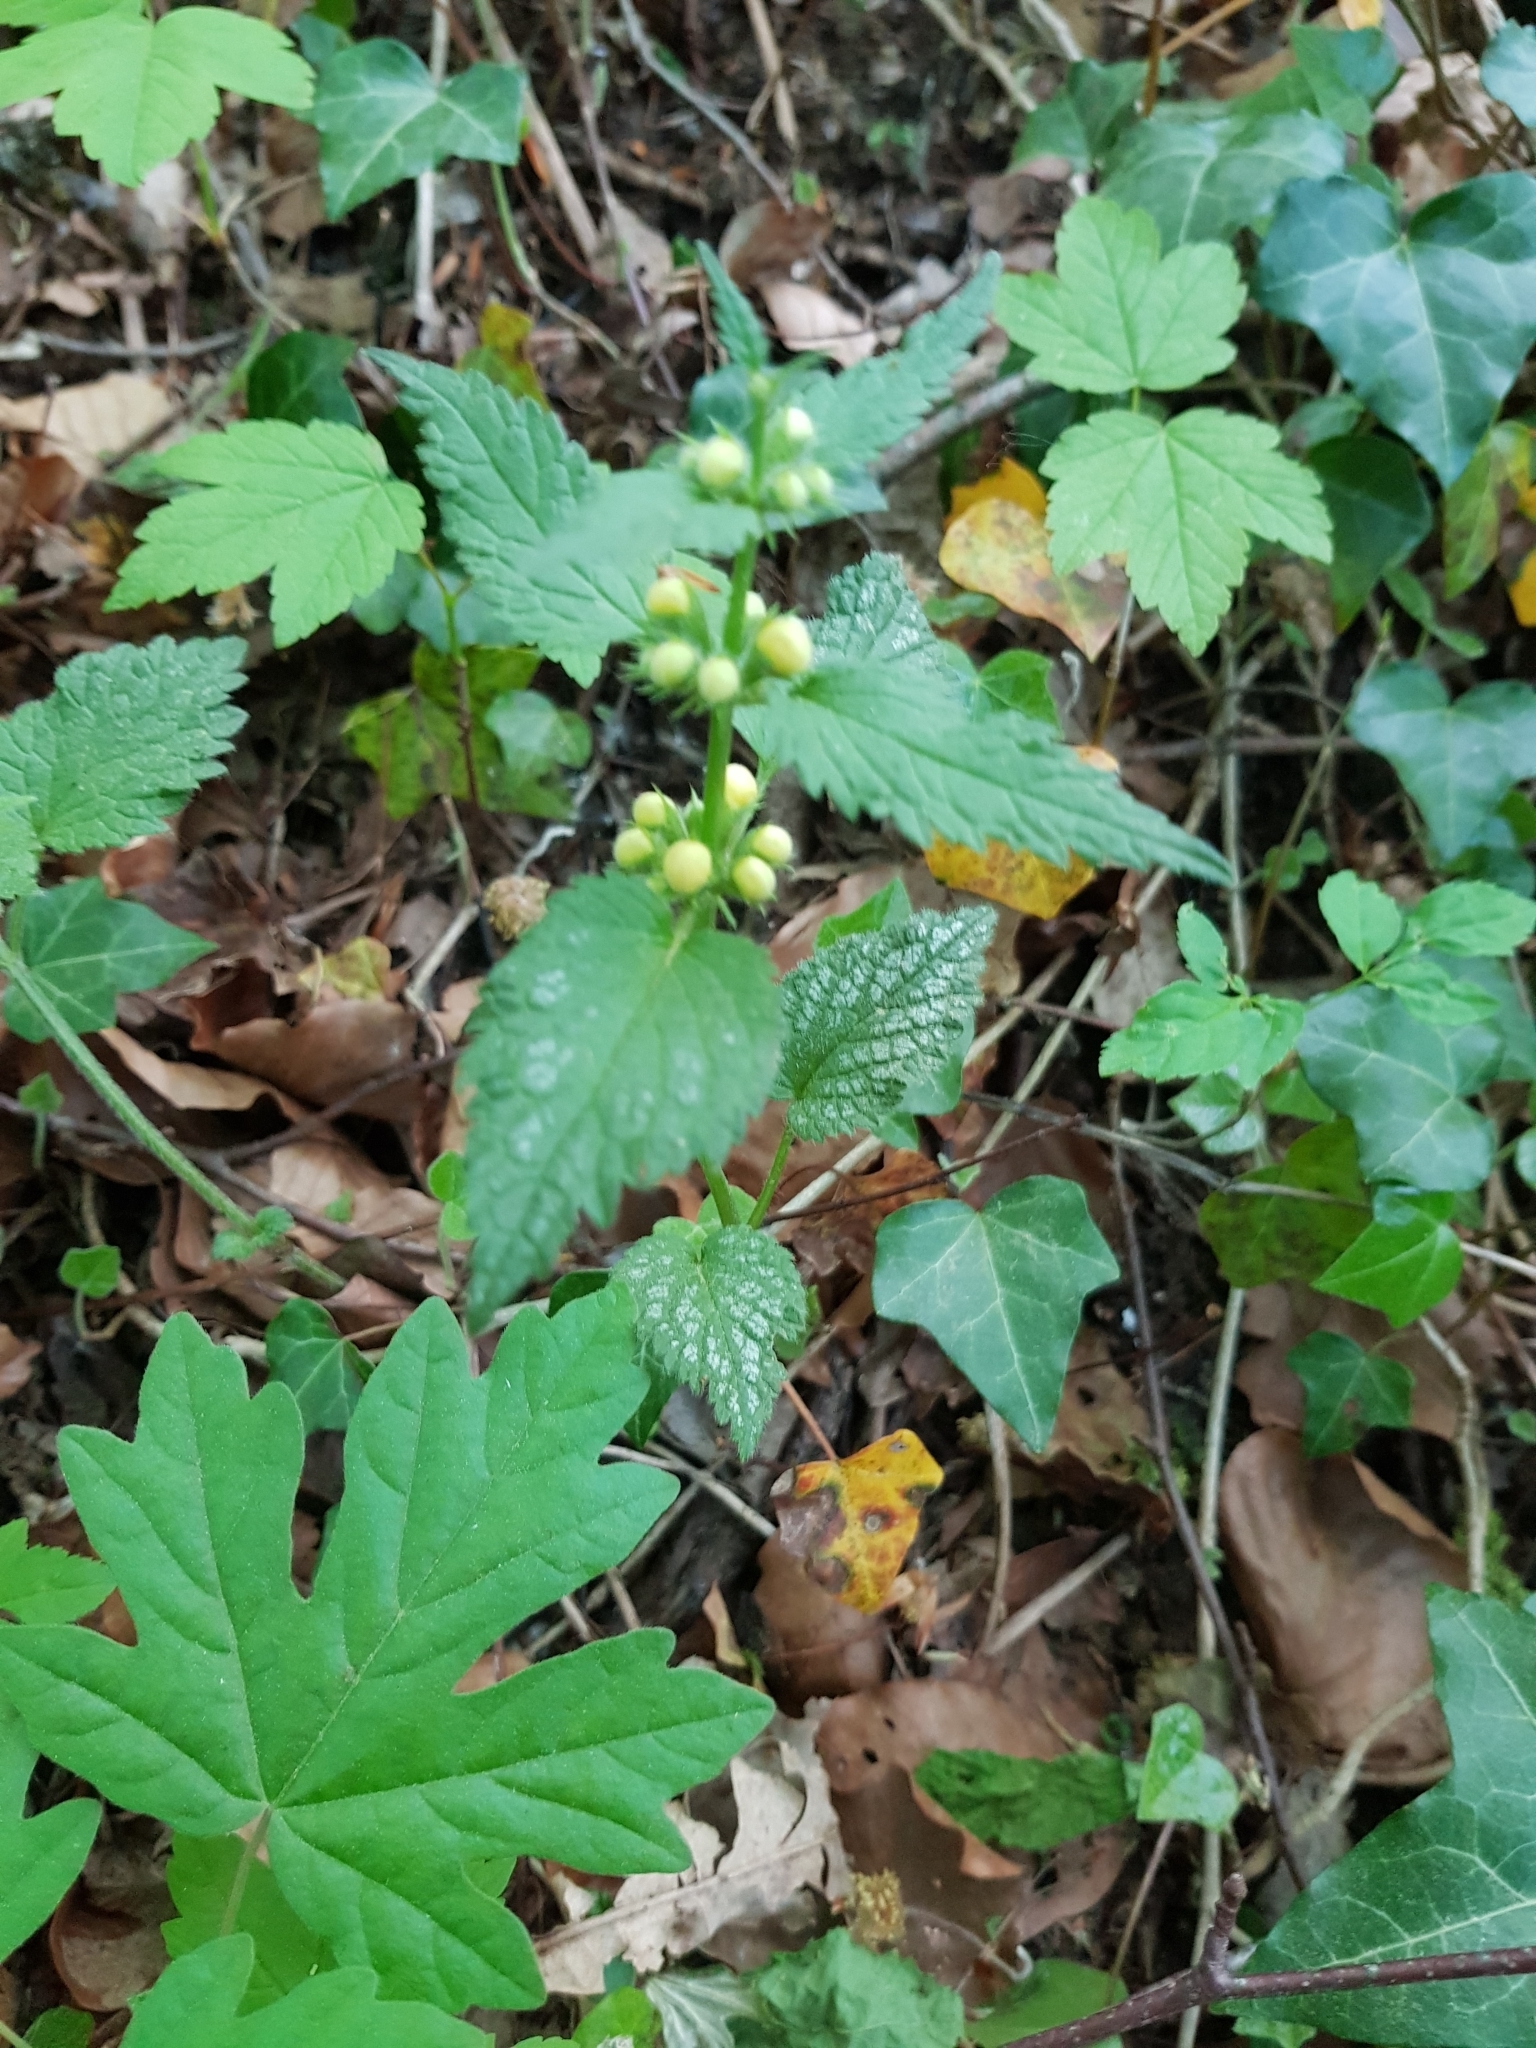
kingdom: Plantae
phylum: Tracheophyta
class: Magnoliopsida
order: Lamiales
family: Lamiaceae
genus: Lamium
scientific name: Lamium galeobdolon
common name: Yellow archangel
